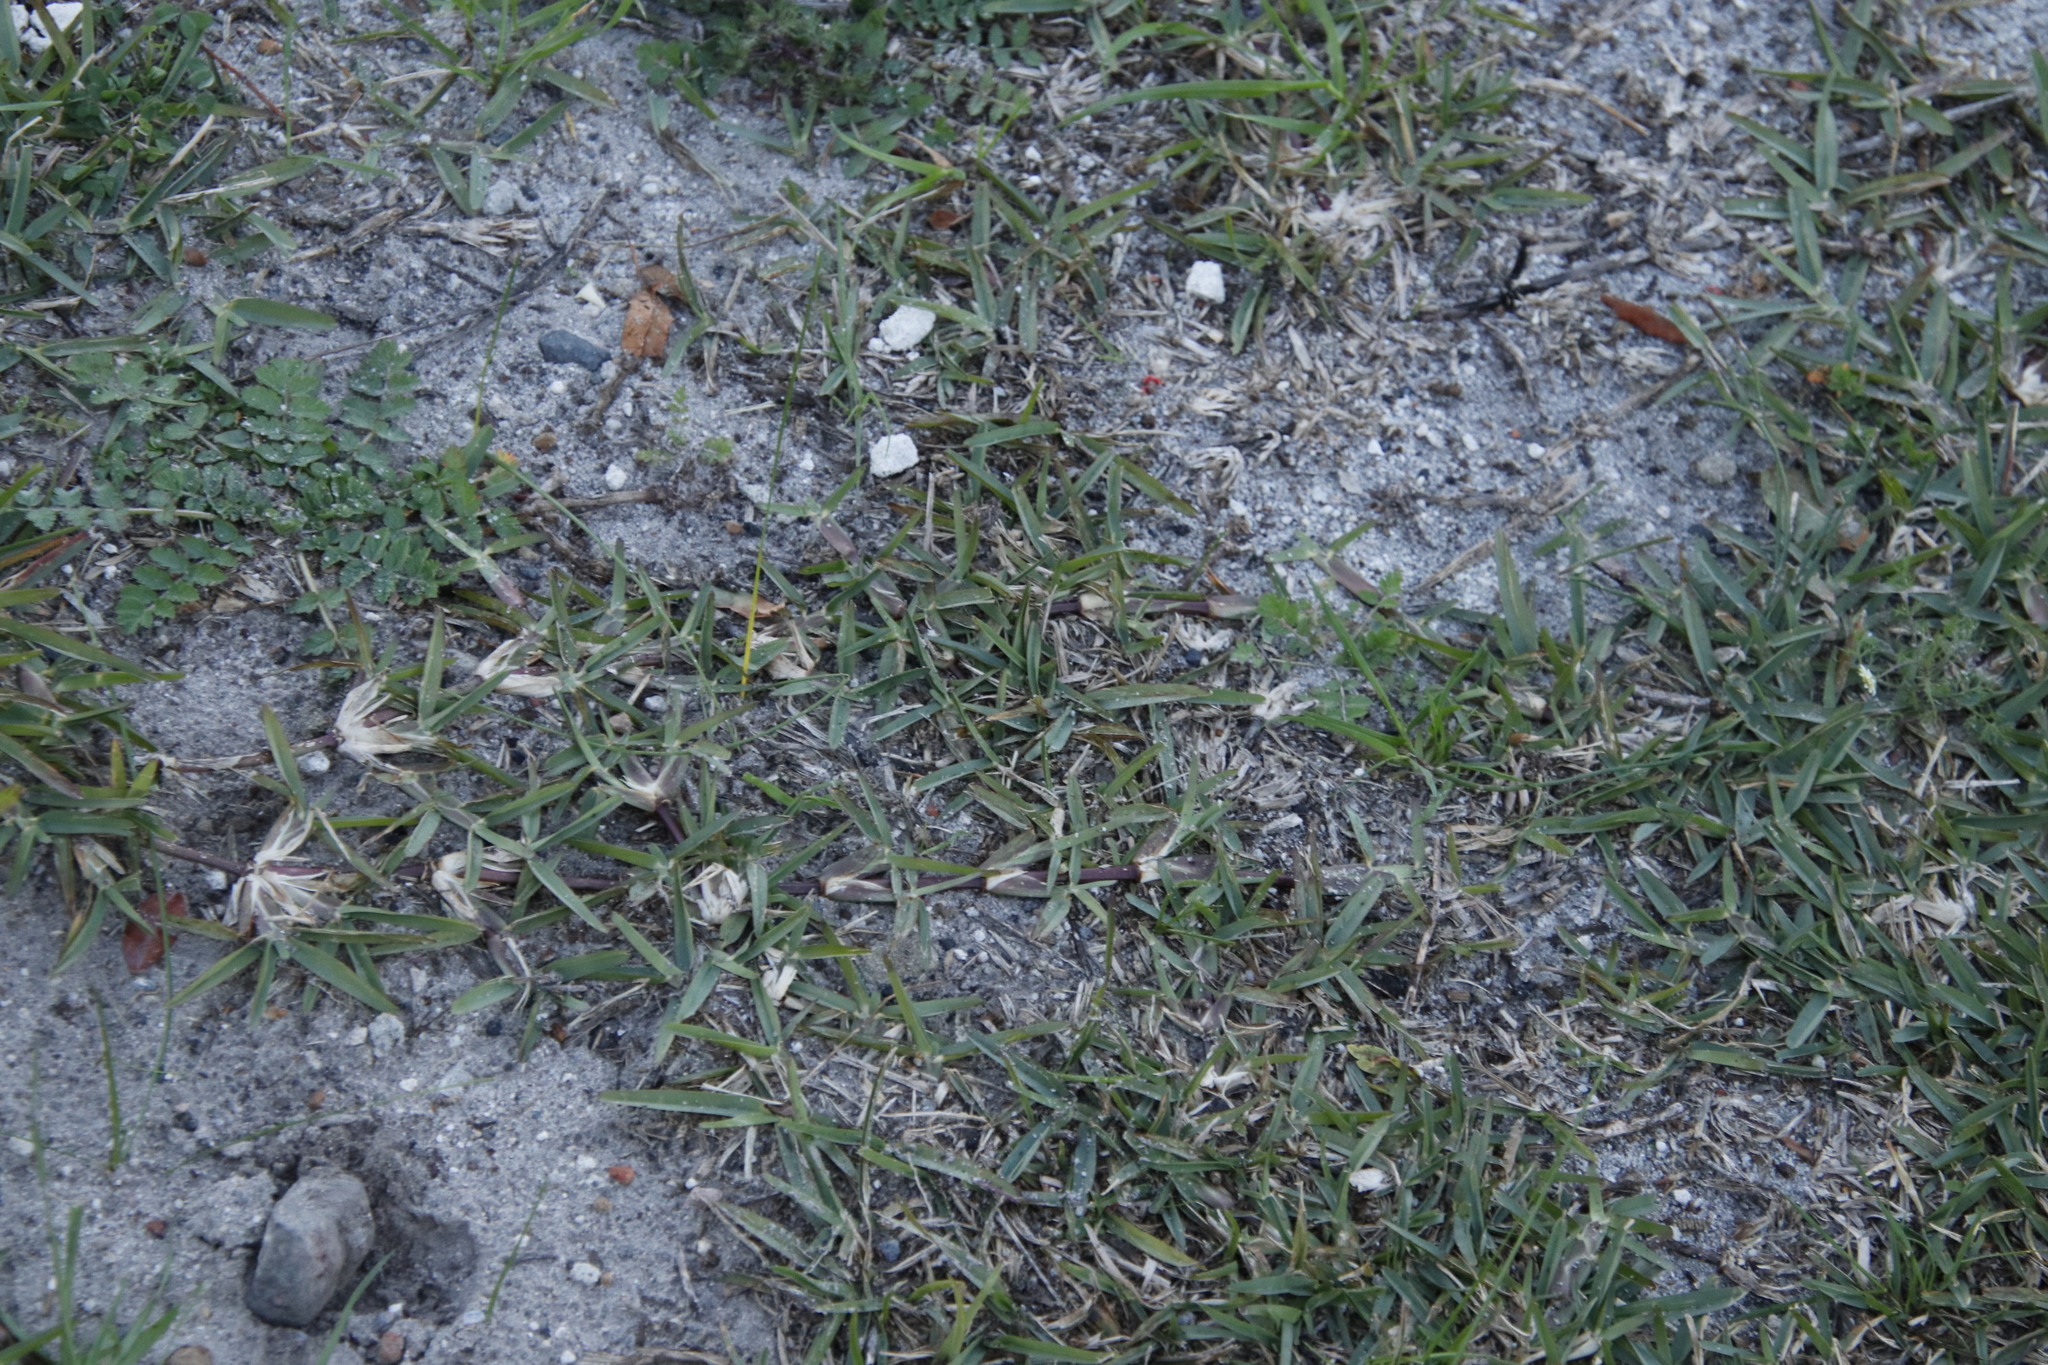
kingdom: Plantae
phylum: Tracheophyta
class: Liliopsida
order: Poales
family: Poaceae
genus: Stenotaphrum
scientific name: Stenotaphrum secundatum
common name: St. augustine grass
